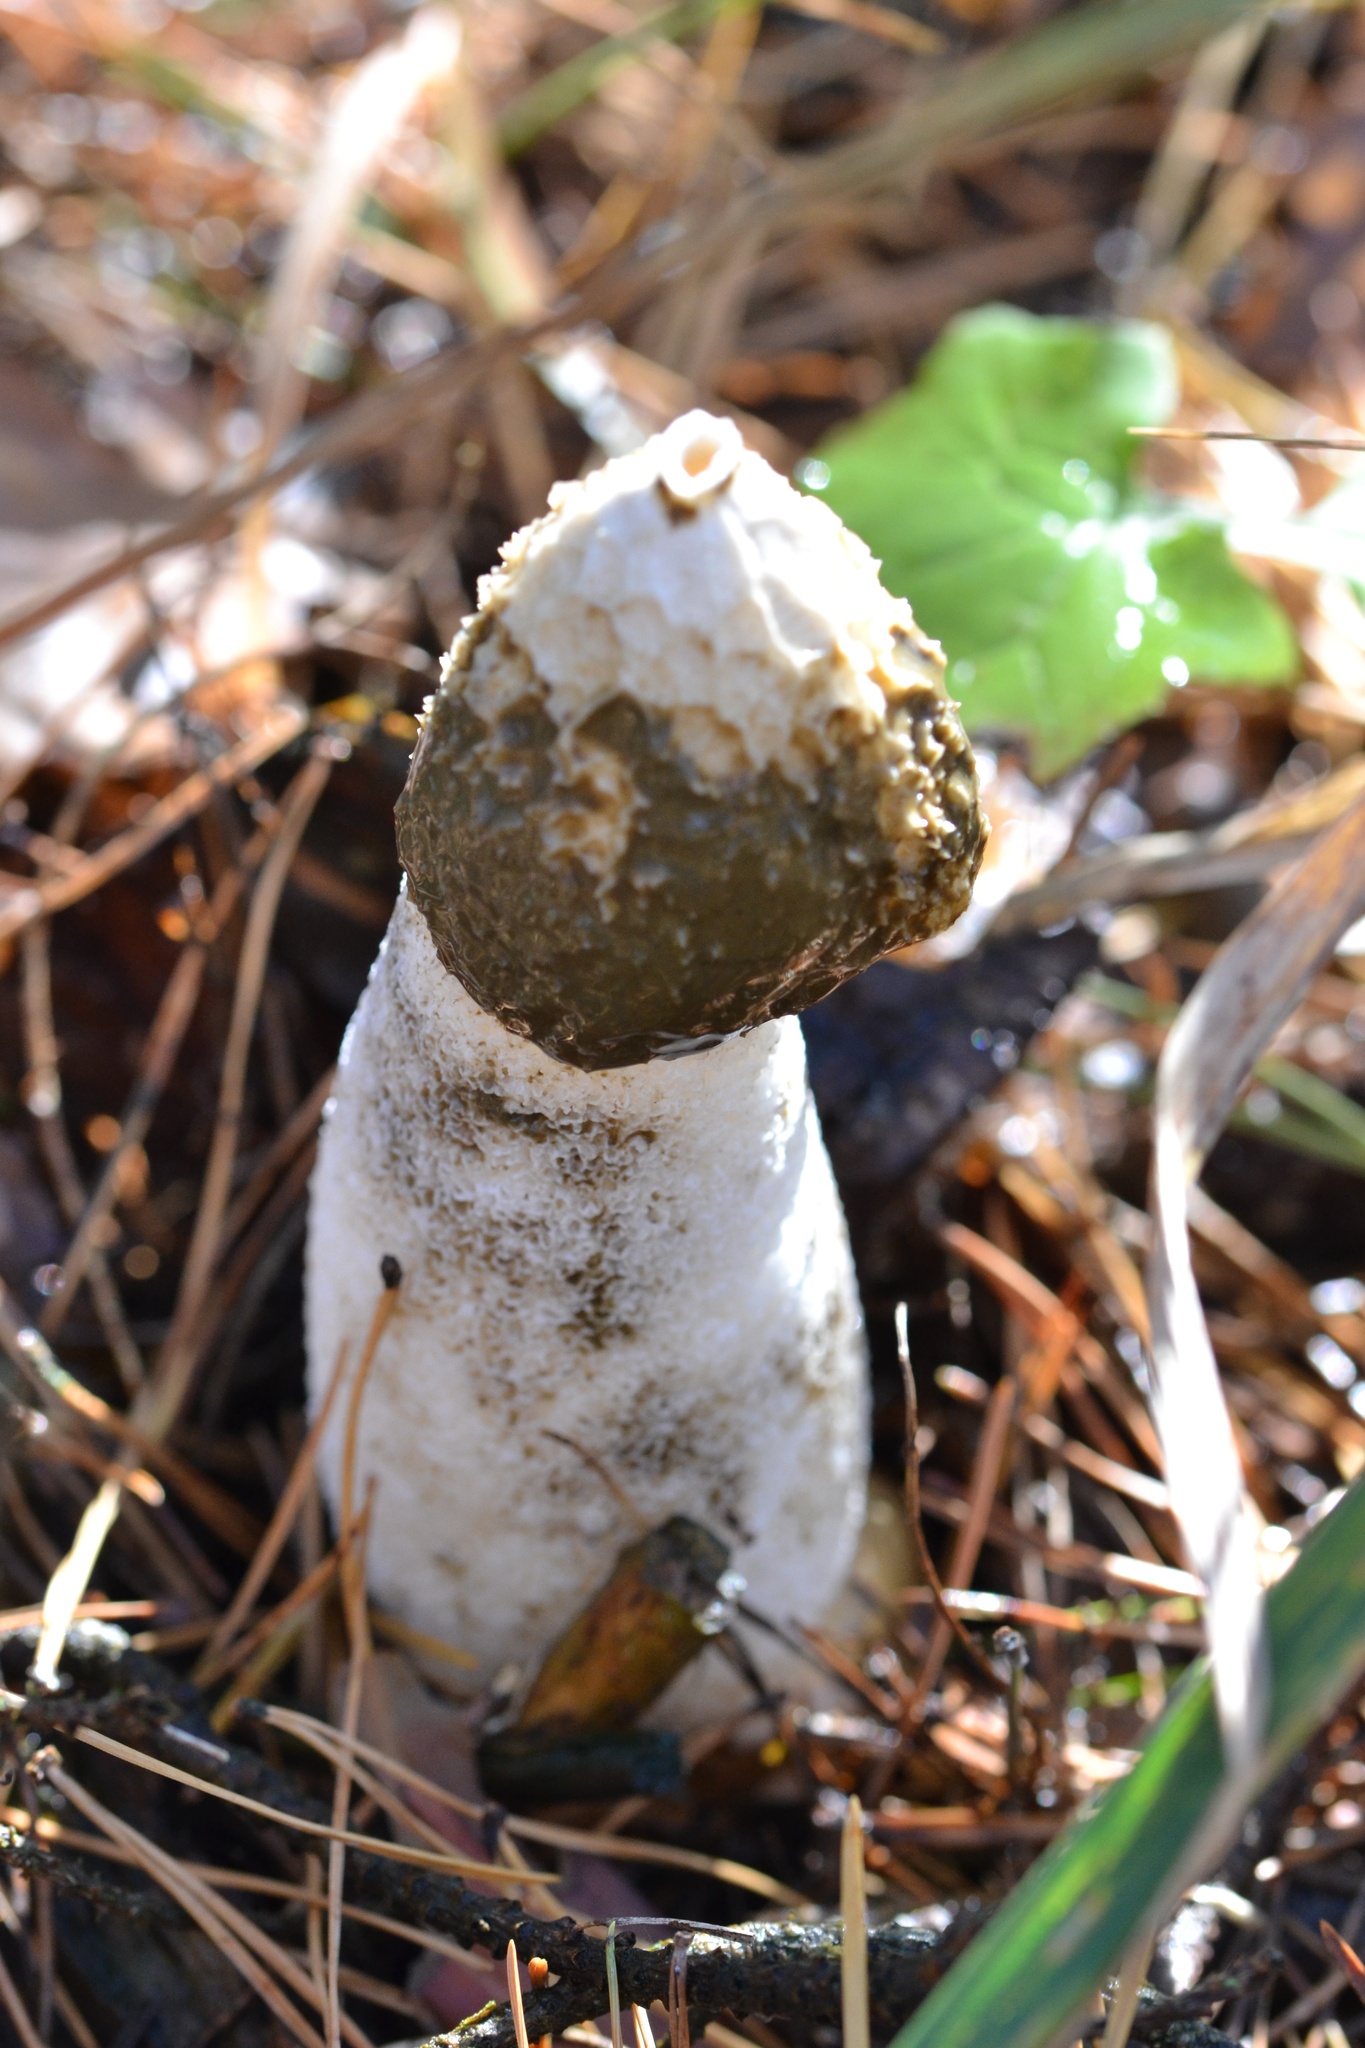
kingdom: Fungi
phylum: Basidiomycota
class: Agaricomycetes
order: Phallales
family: Phallaceae
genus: Phallus
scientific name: Phallus impudicus
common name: Common stinkhorn
